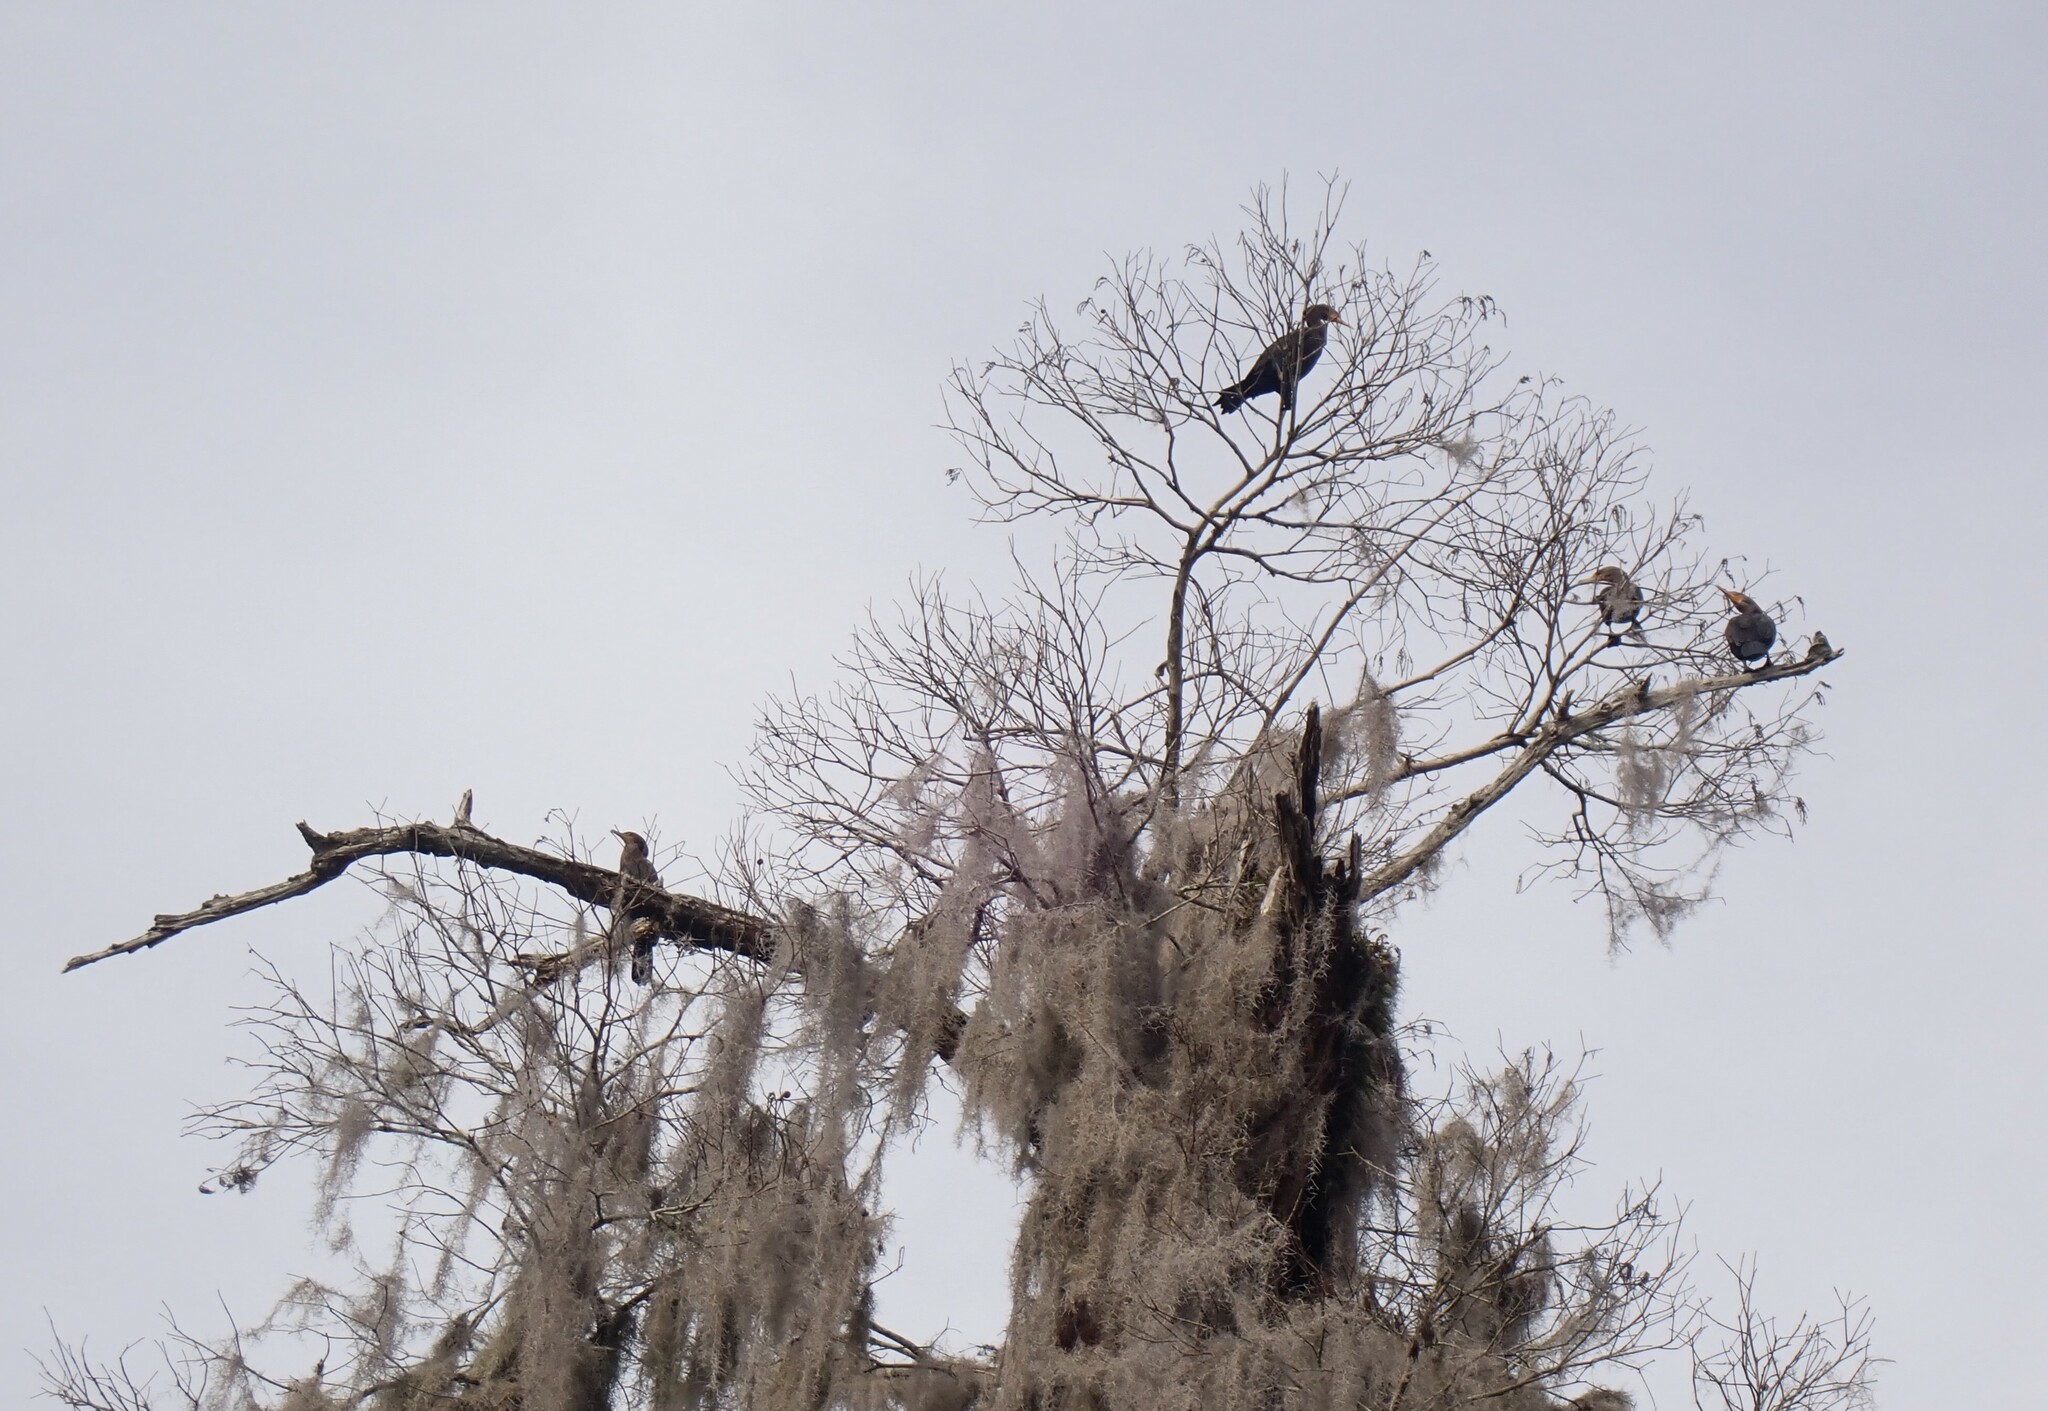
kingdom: Animalia
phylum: Chordata
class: Aves
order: Suliformes
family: Phalacrocoracidae
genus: Phalacrocorax
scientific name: Phalacrocorax auritus
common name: Double-crested cormorant
